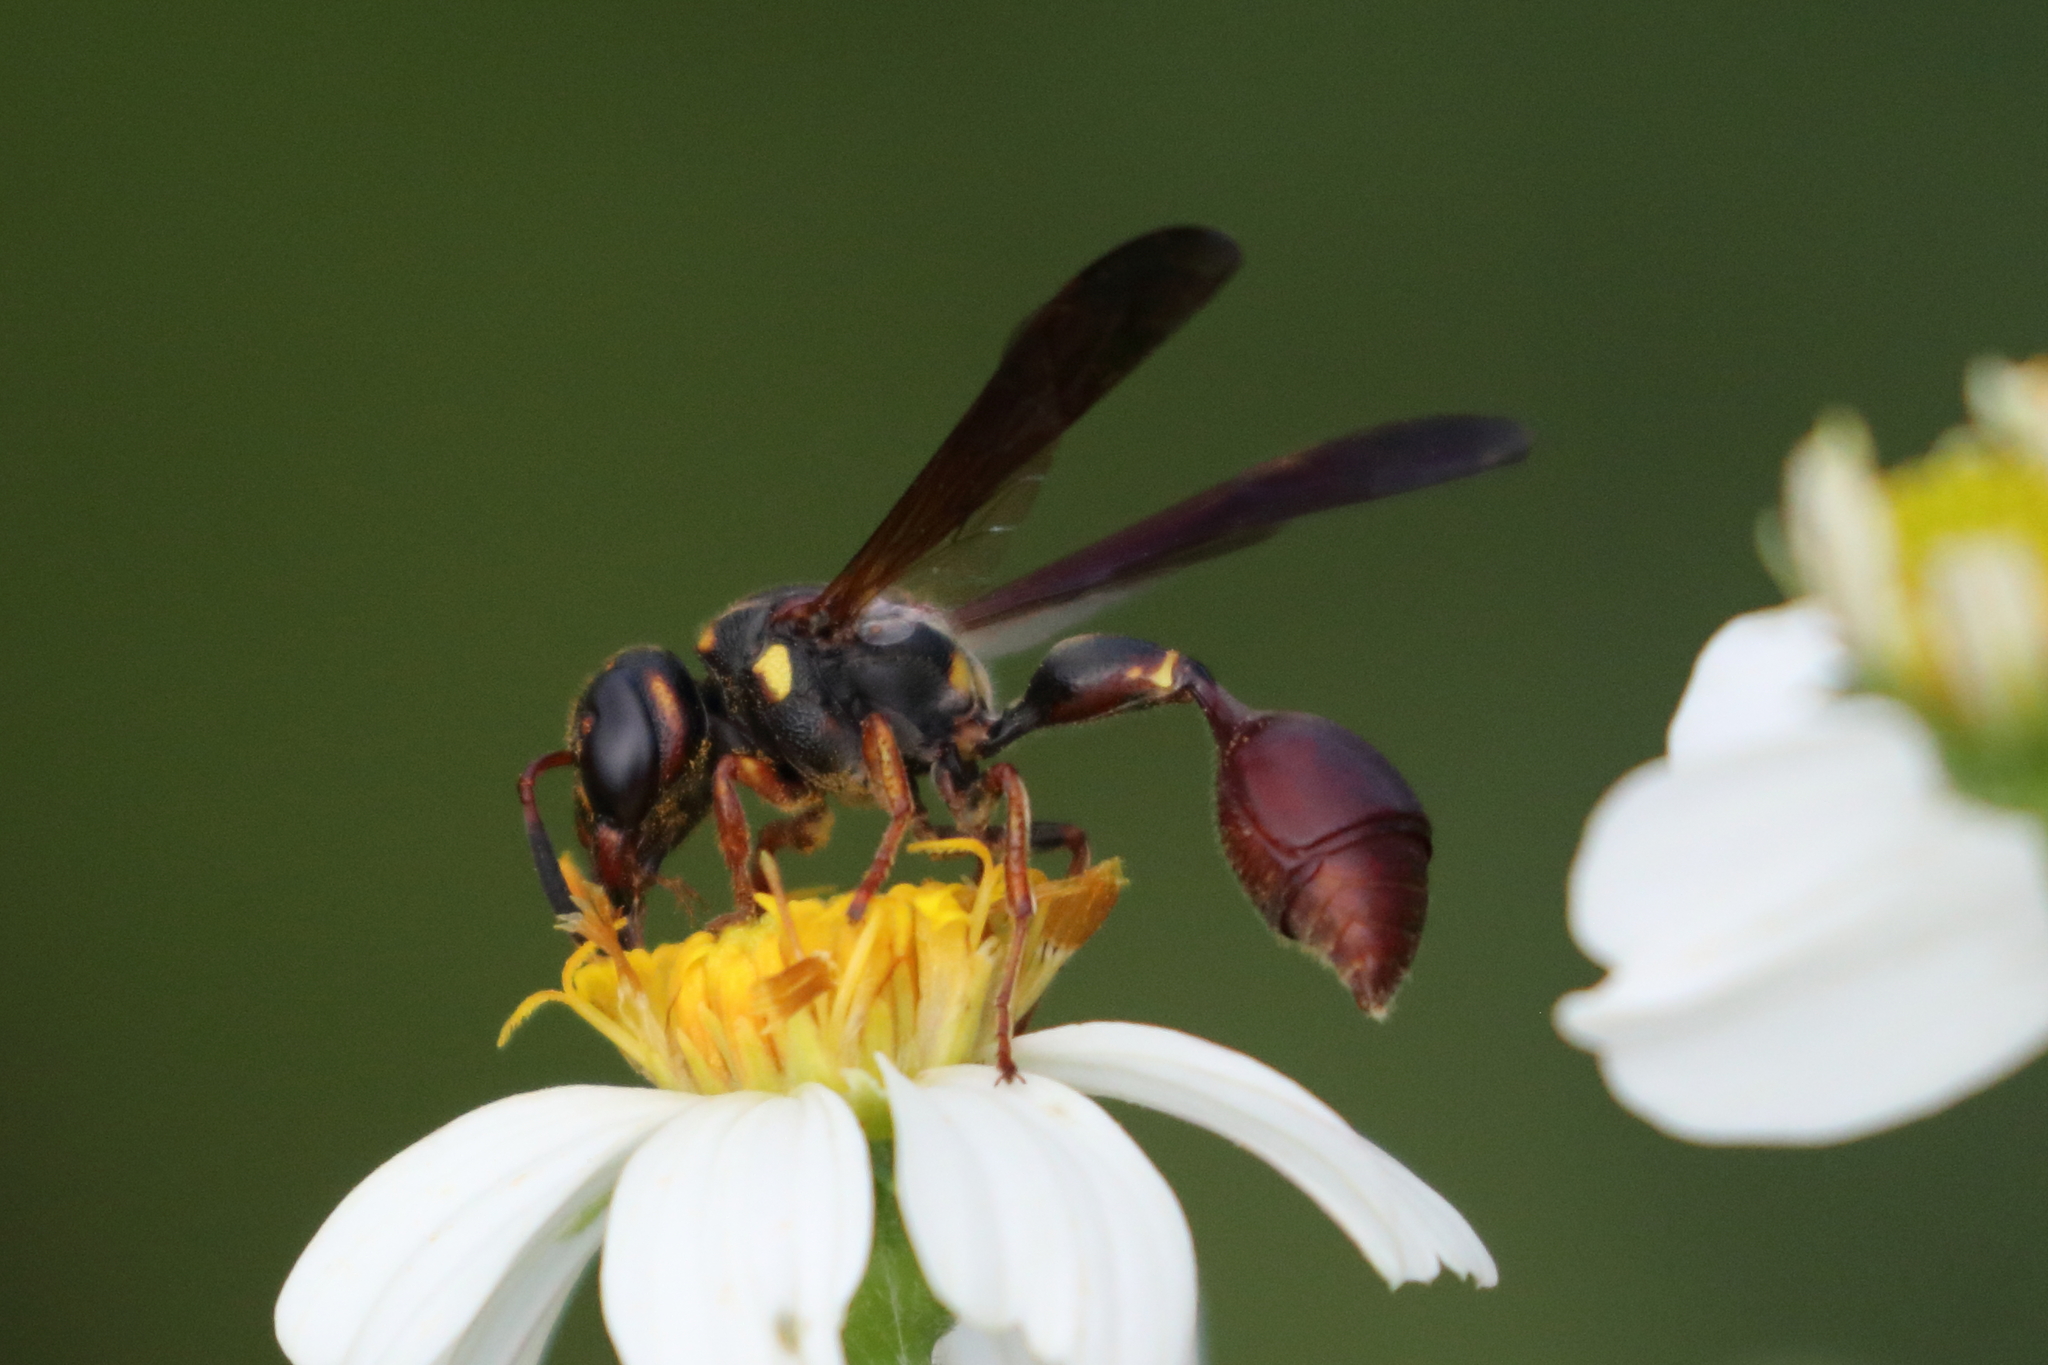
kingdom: Animalia
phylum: Arthropoda
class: Insecta
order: Hymenoptera
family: Eumenidae
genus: Zethus
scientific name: Zethus slossonae
